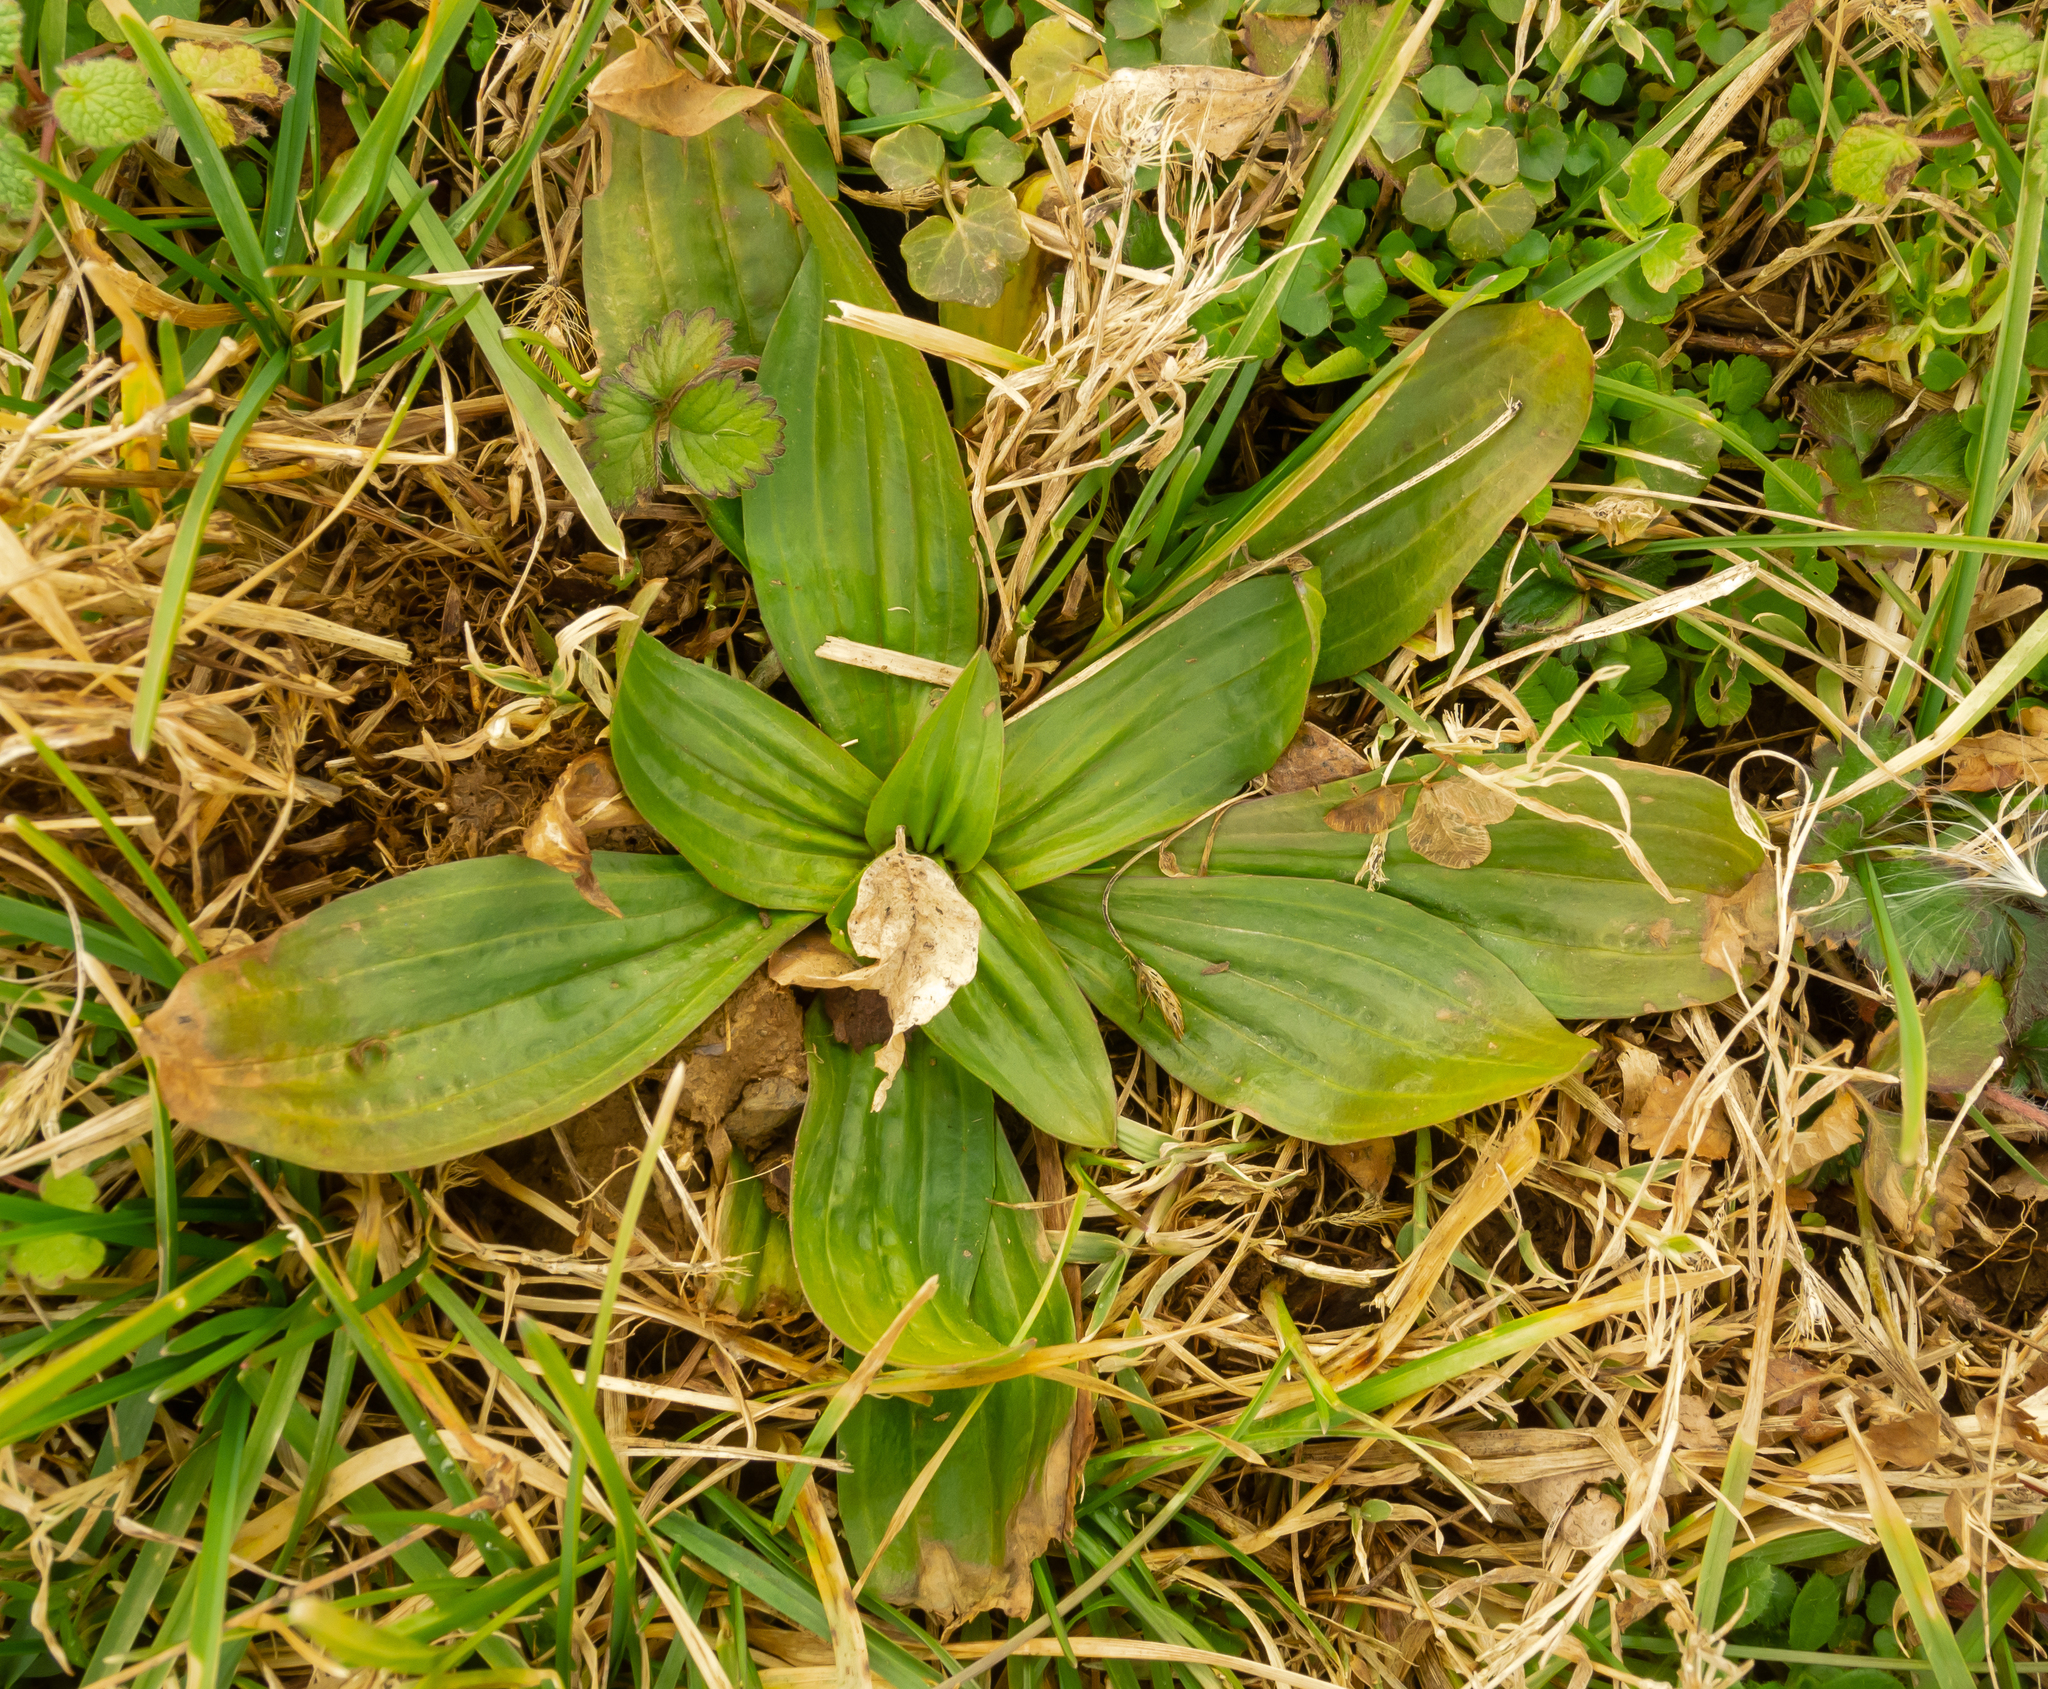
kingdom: Plantae
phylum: Tracheophyta
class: Magnoliopsida
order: Lamiales
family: Plantaginaceae
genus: Plantago
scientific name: Plantago lanceolata
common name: Ribwort plantain
